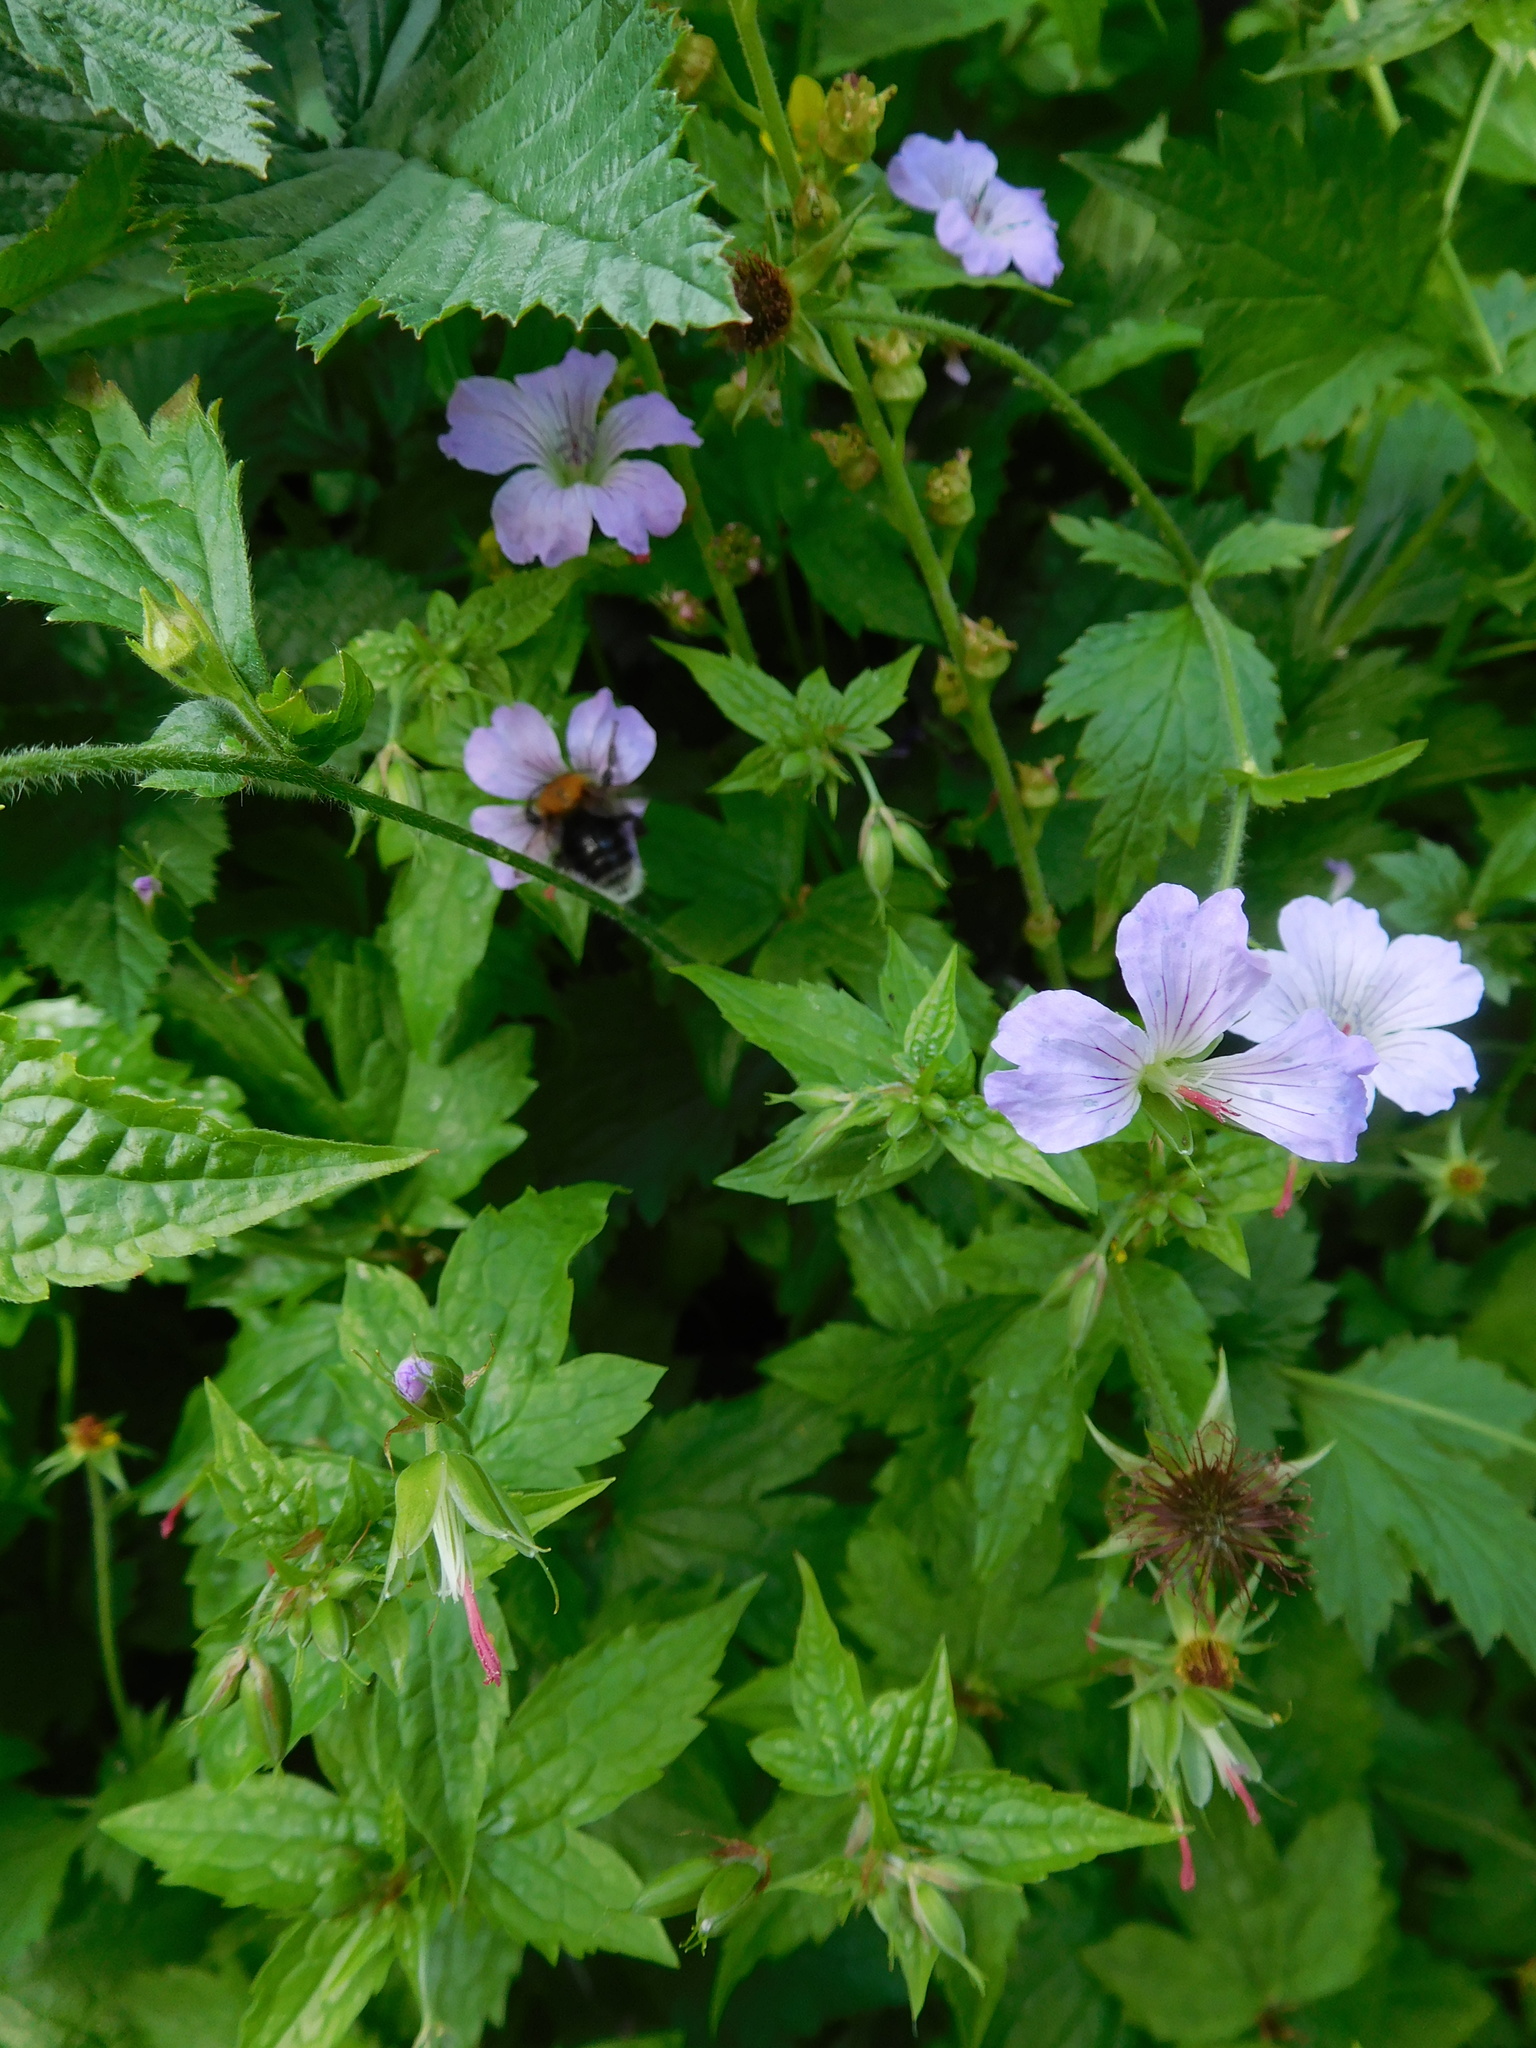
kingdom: Animalia
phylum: Arthropoda
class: Insecta
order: Hymenoptera
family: Apidae
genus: Bombus
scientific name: Bombus hypnorum
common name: New garden bumblebee
